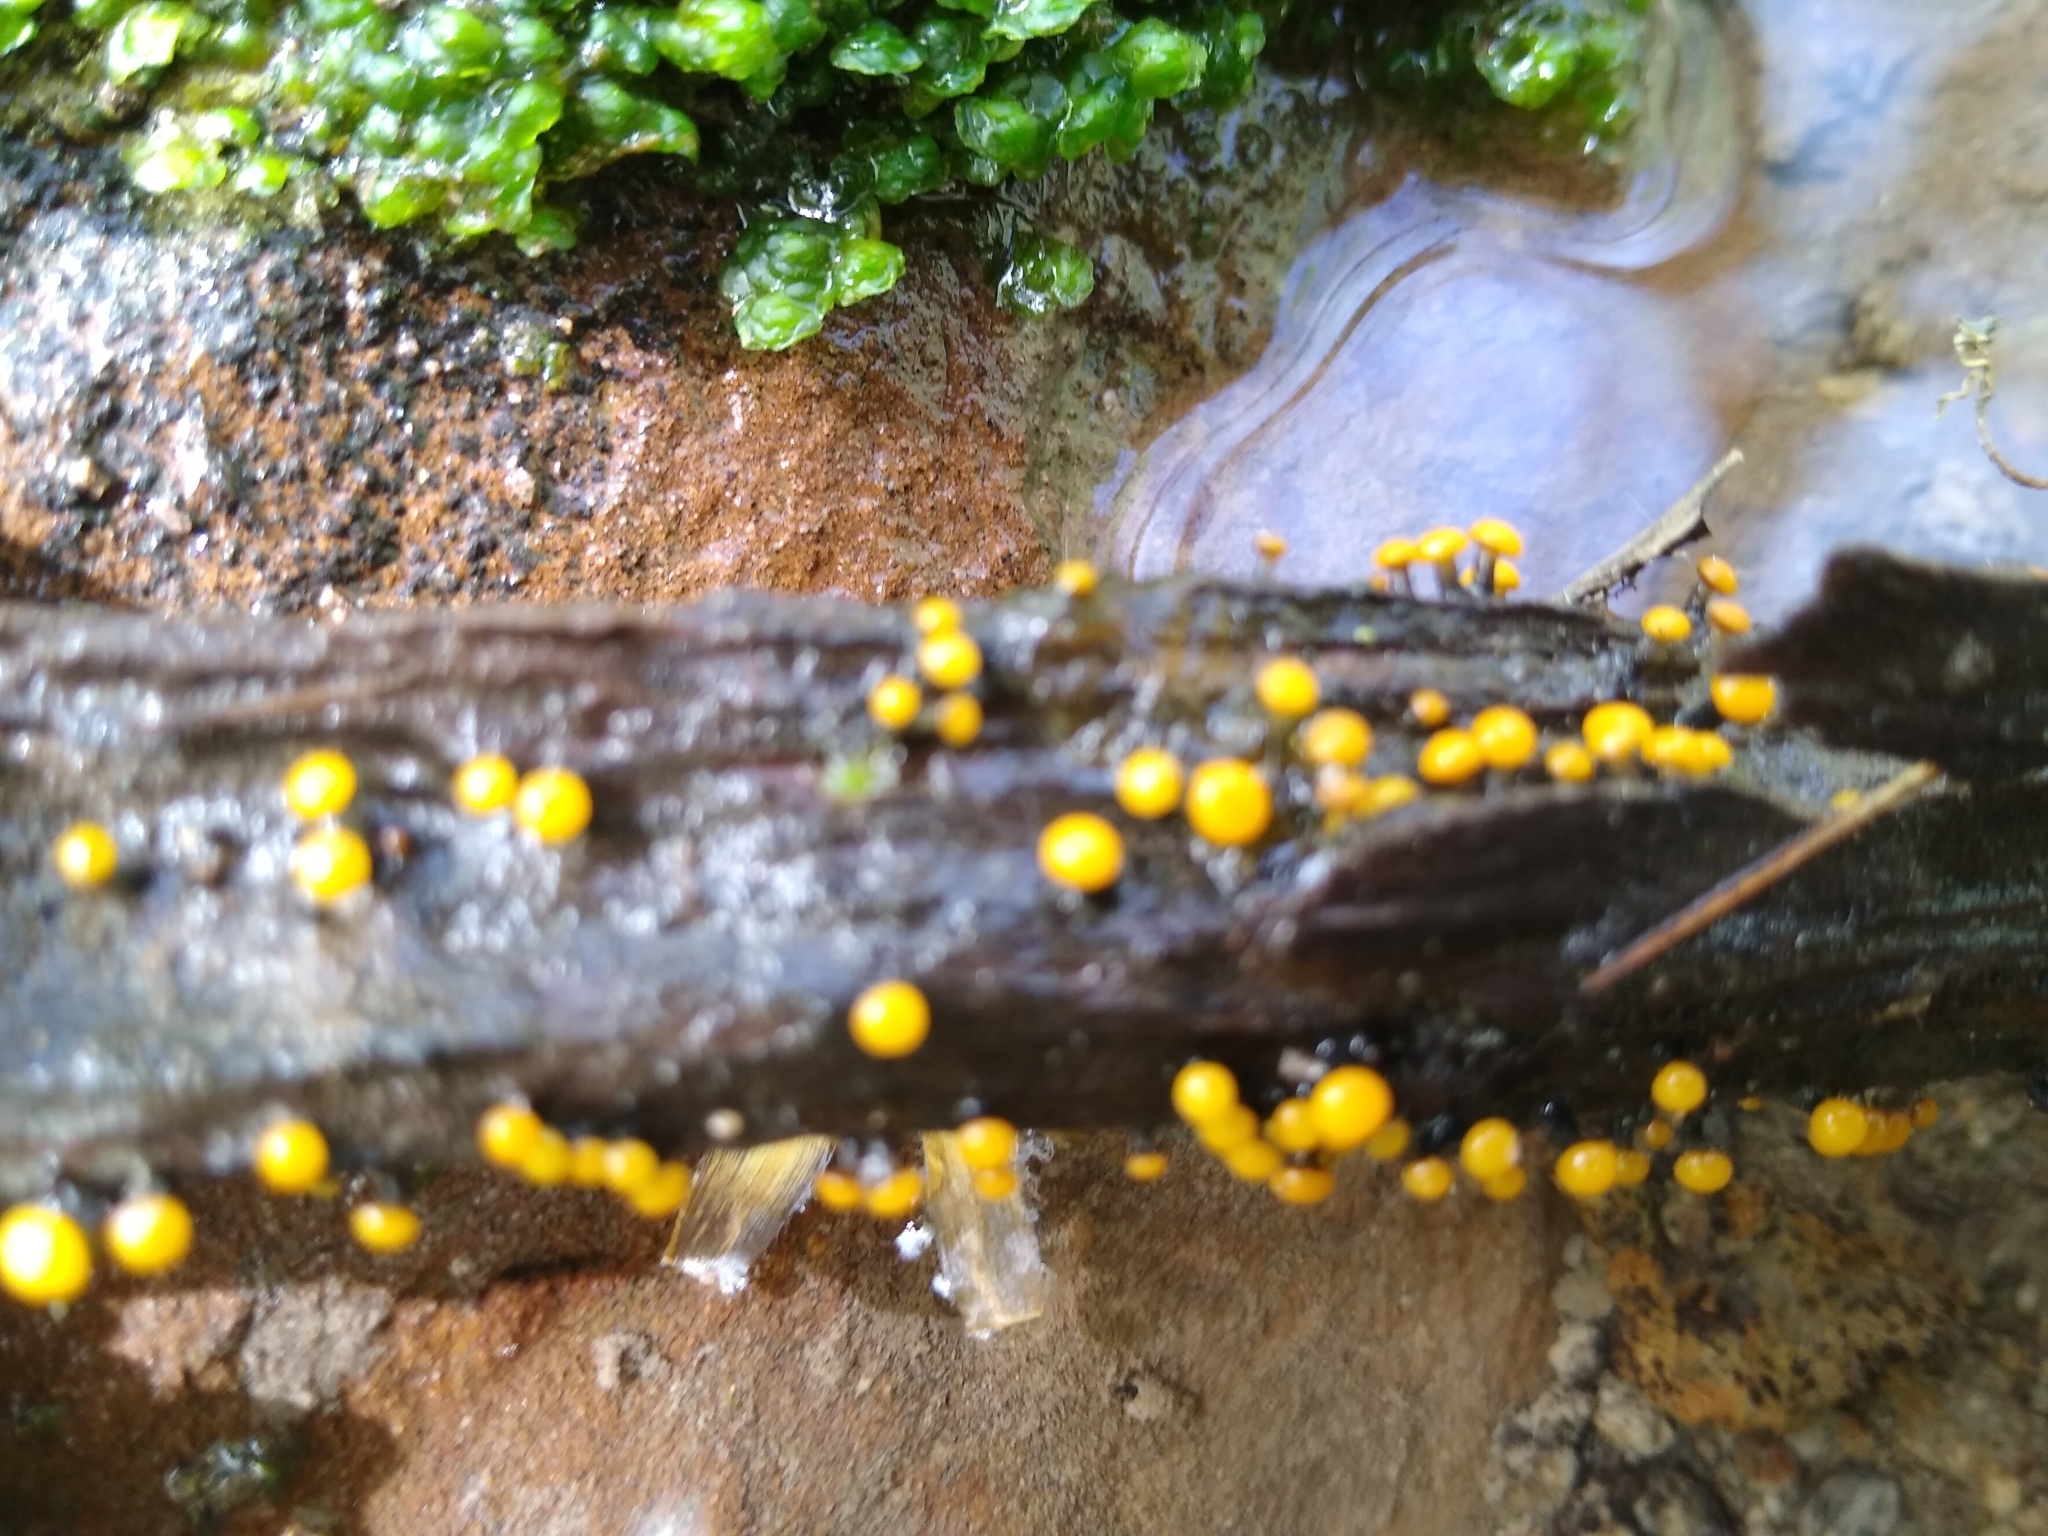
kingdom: Fungi
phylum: Ascomycota
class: Leotiomycetes
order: Helotiales
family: Vibrisseaceae
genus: Vibrissea
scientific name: Vibrissea truncorum
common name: Stream beacon
